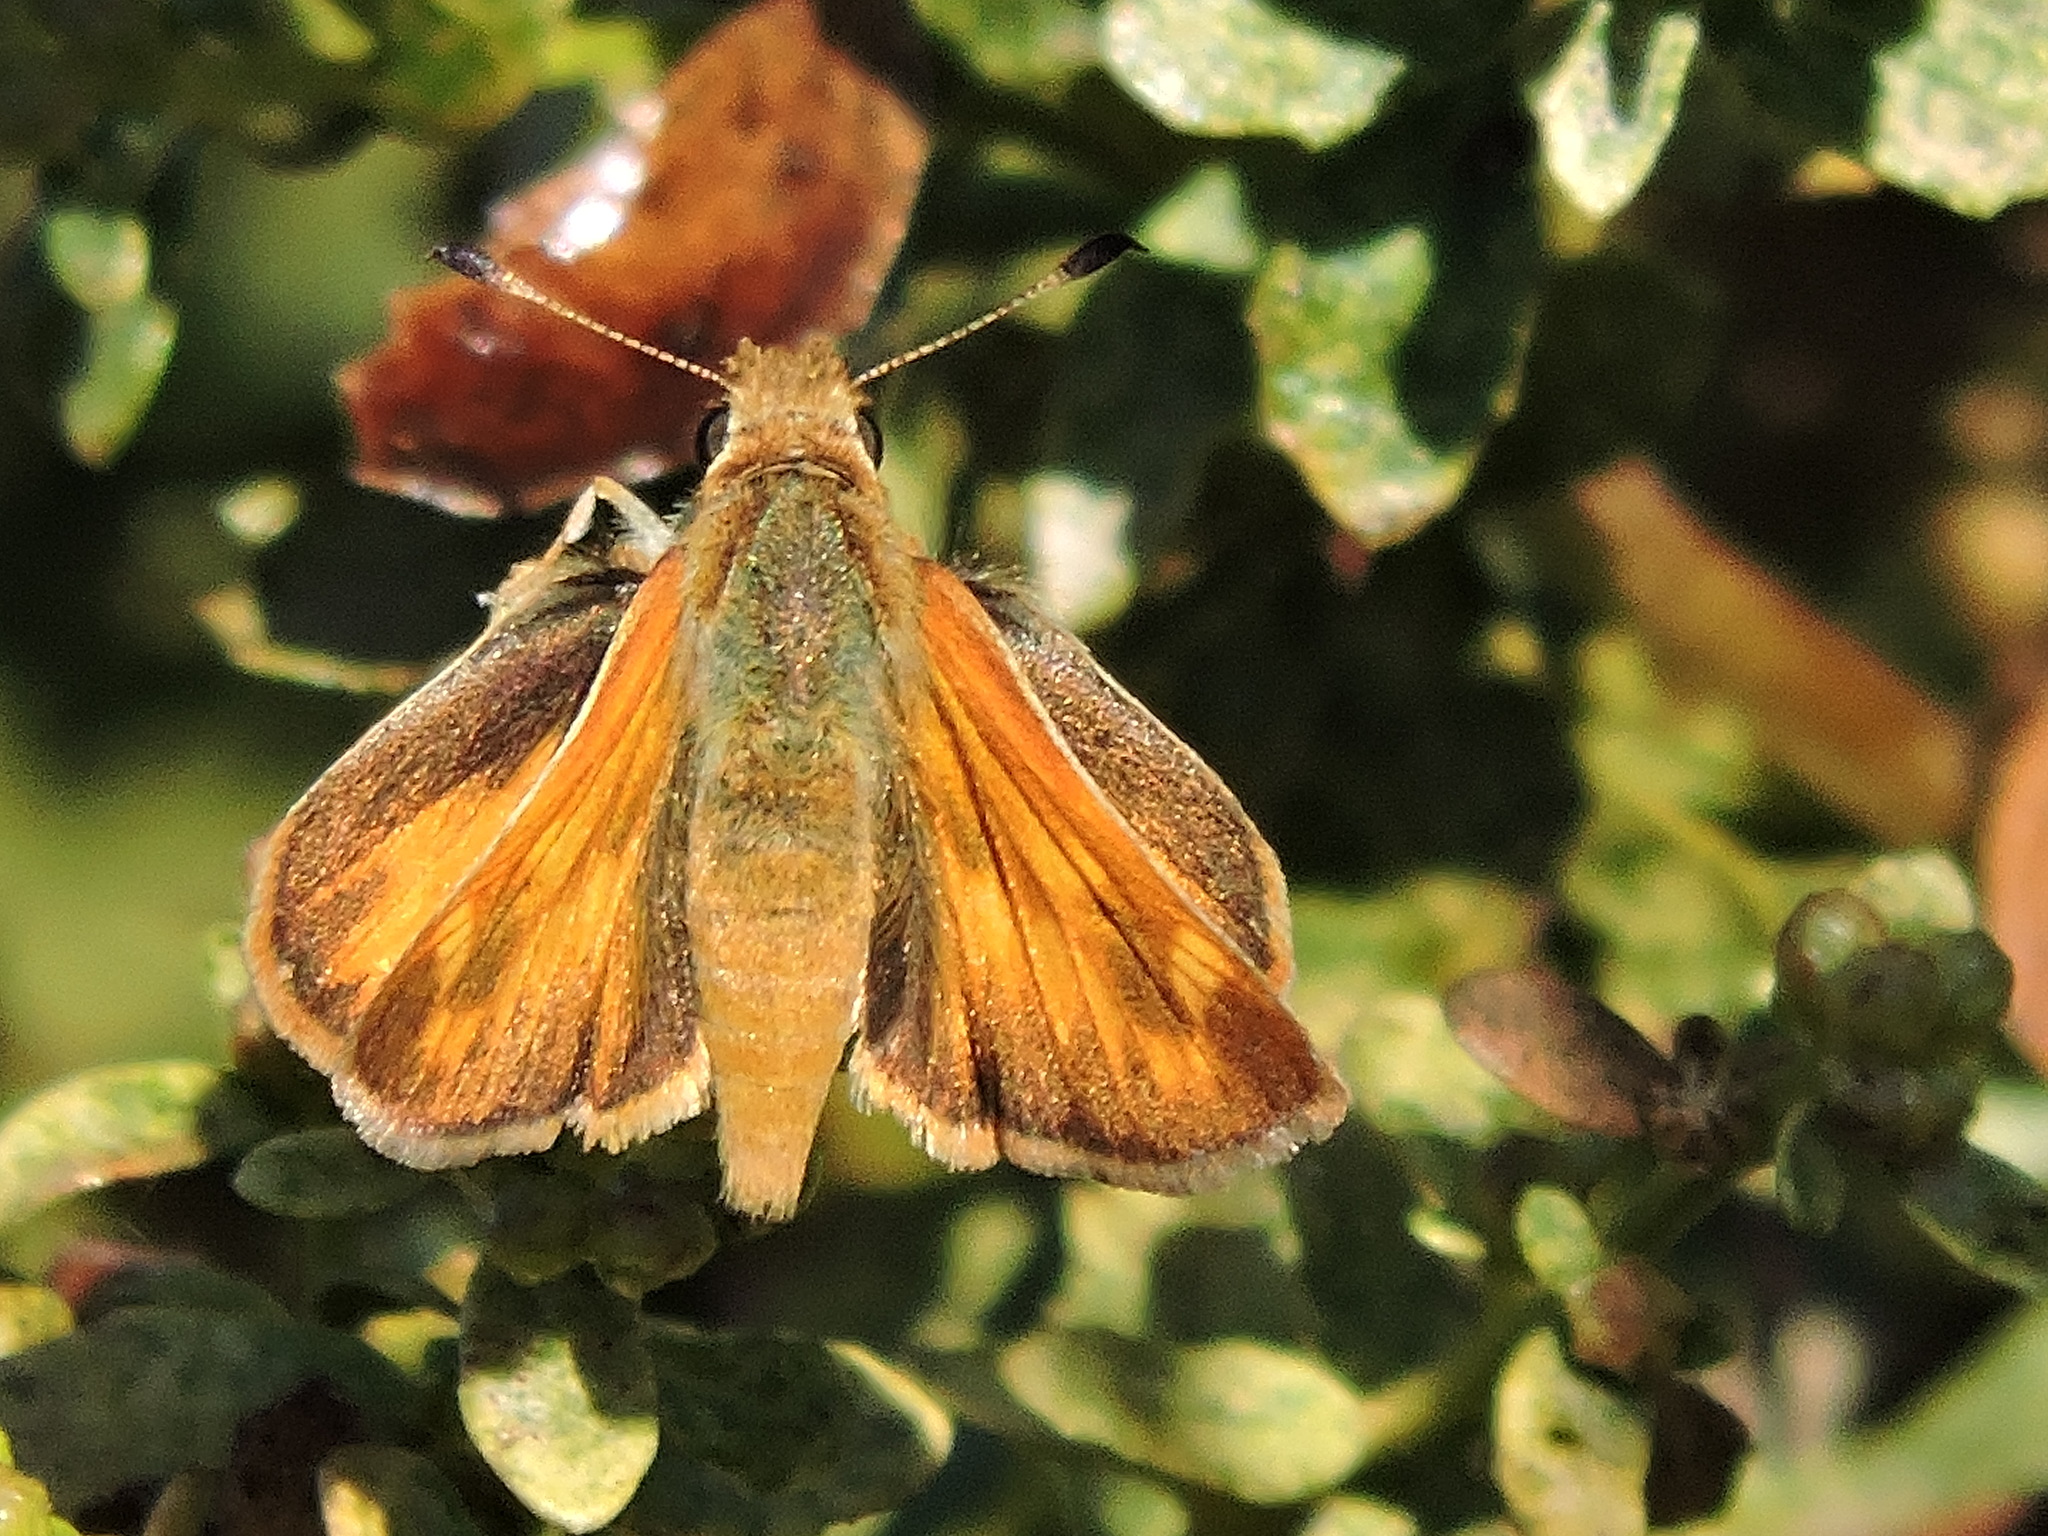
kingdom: Animalia
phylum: Arthropoda
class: Insecta
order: Lepidoptera
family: Hesperiidae
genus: Ochlodes
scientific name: Ochlodes sylvanoides
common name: Woodland skipper
